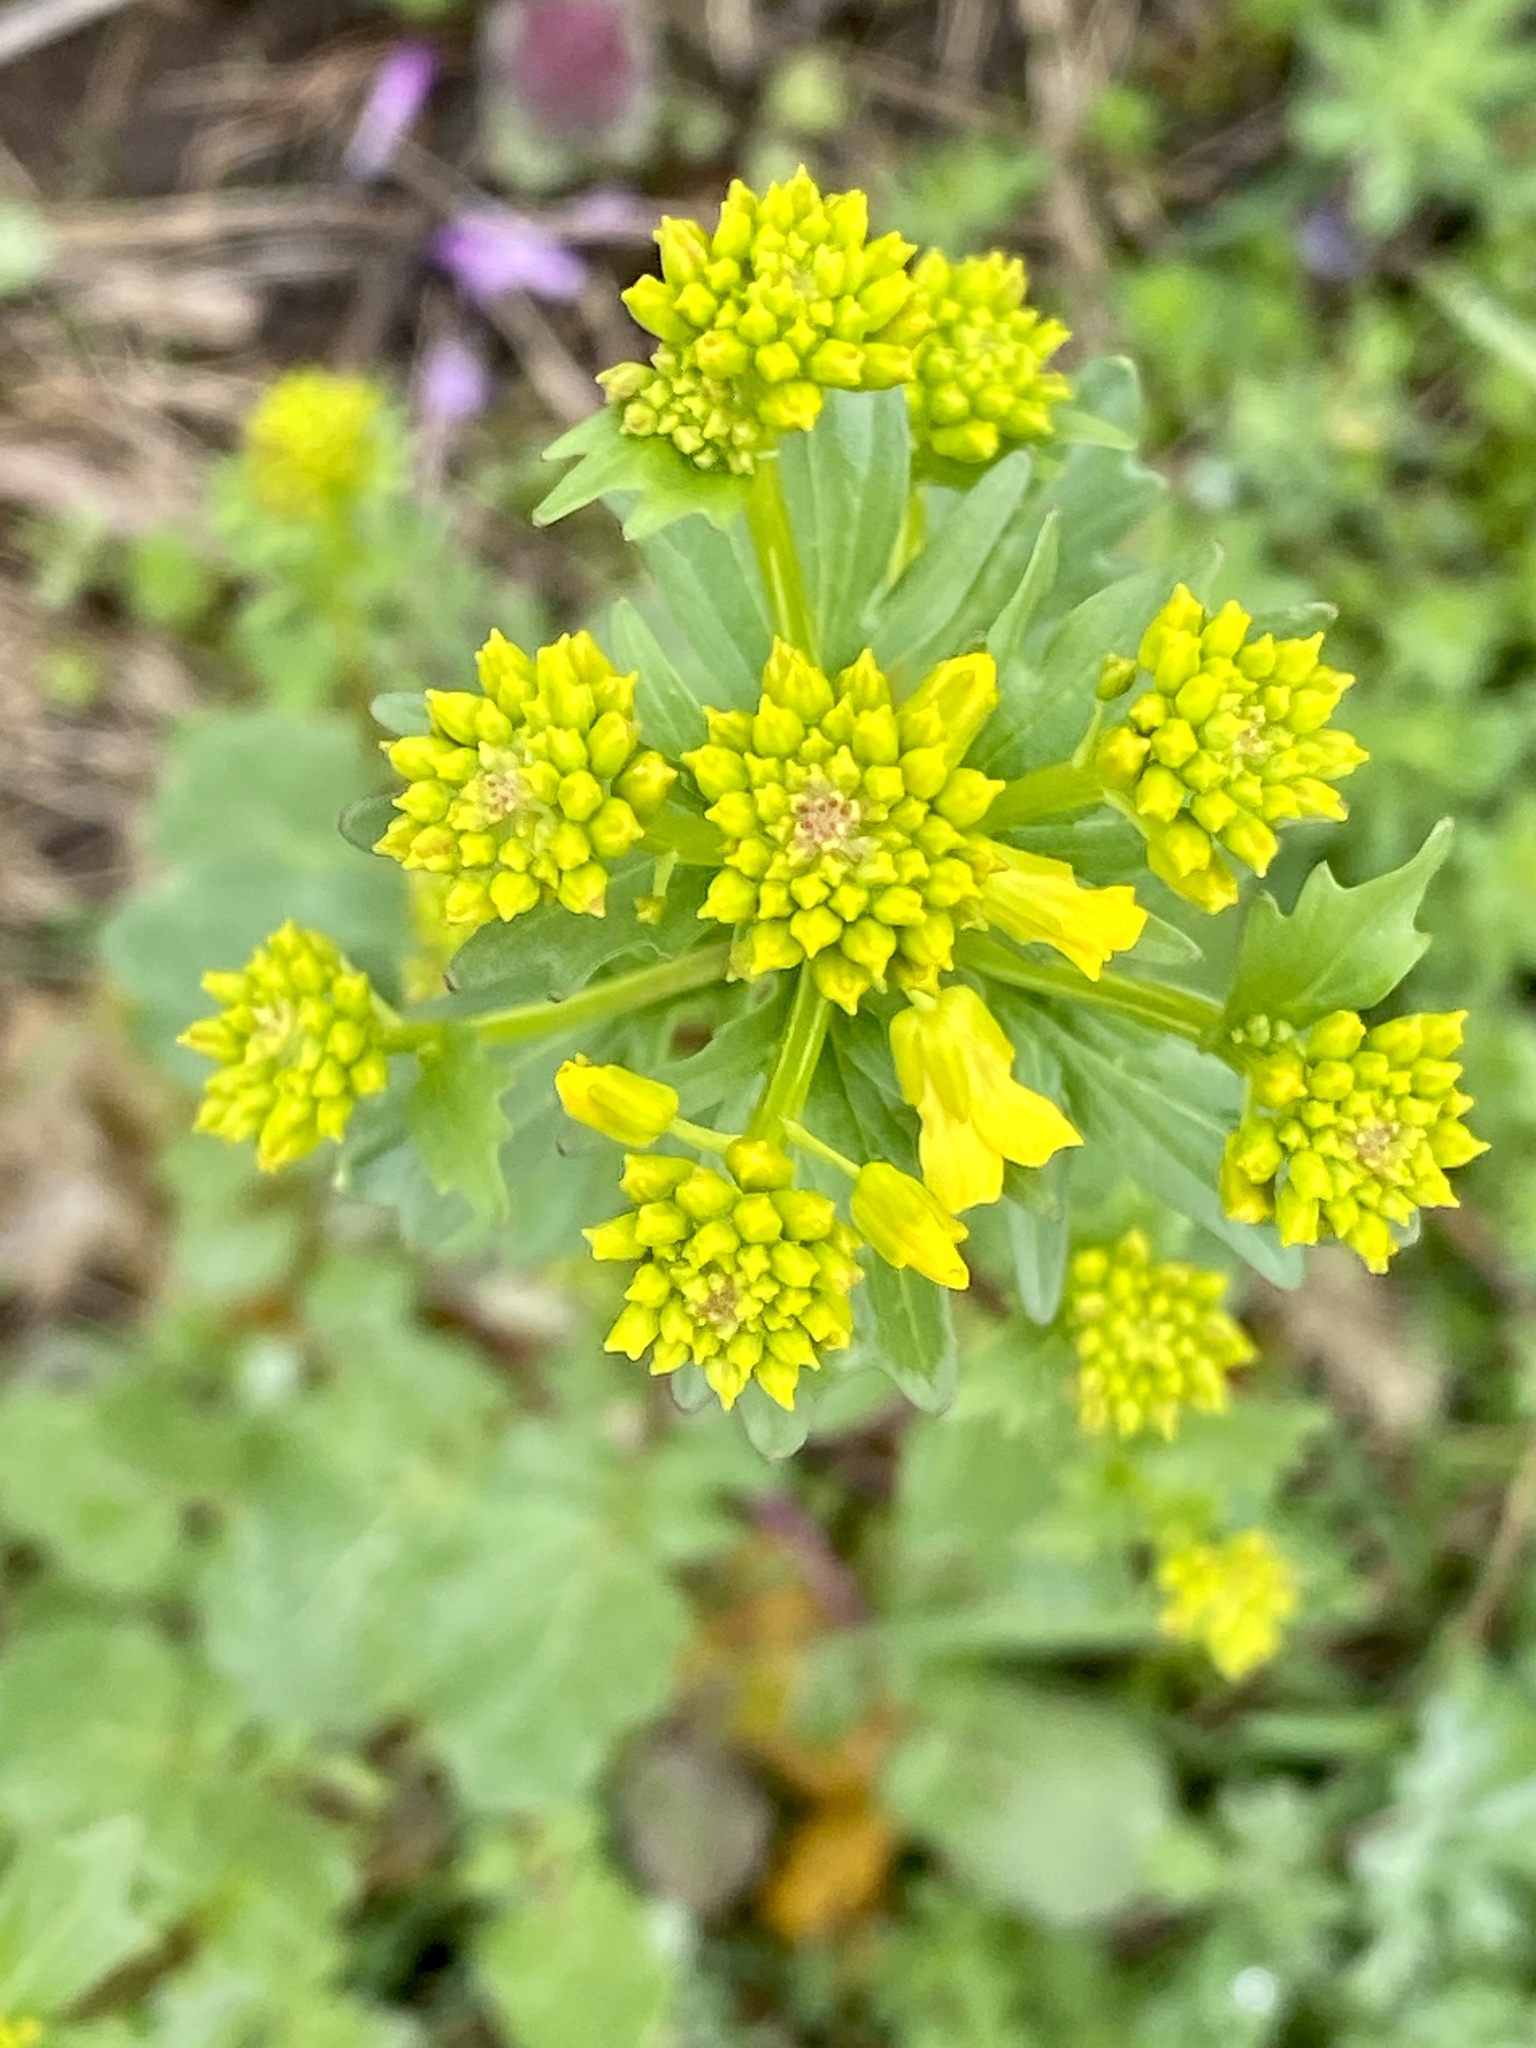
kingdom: Plantae
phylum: Tracheophyta
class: Magnoliopsida
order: Brassicales
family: Brassicaceae
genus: Barbarea
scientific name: Barbarea vulgaris
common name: Cressy-greens
